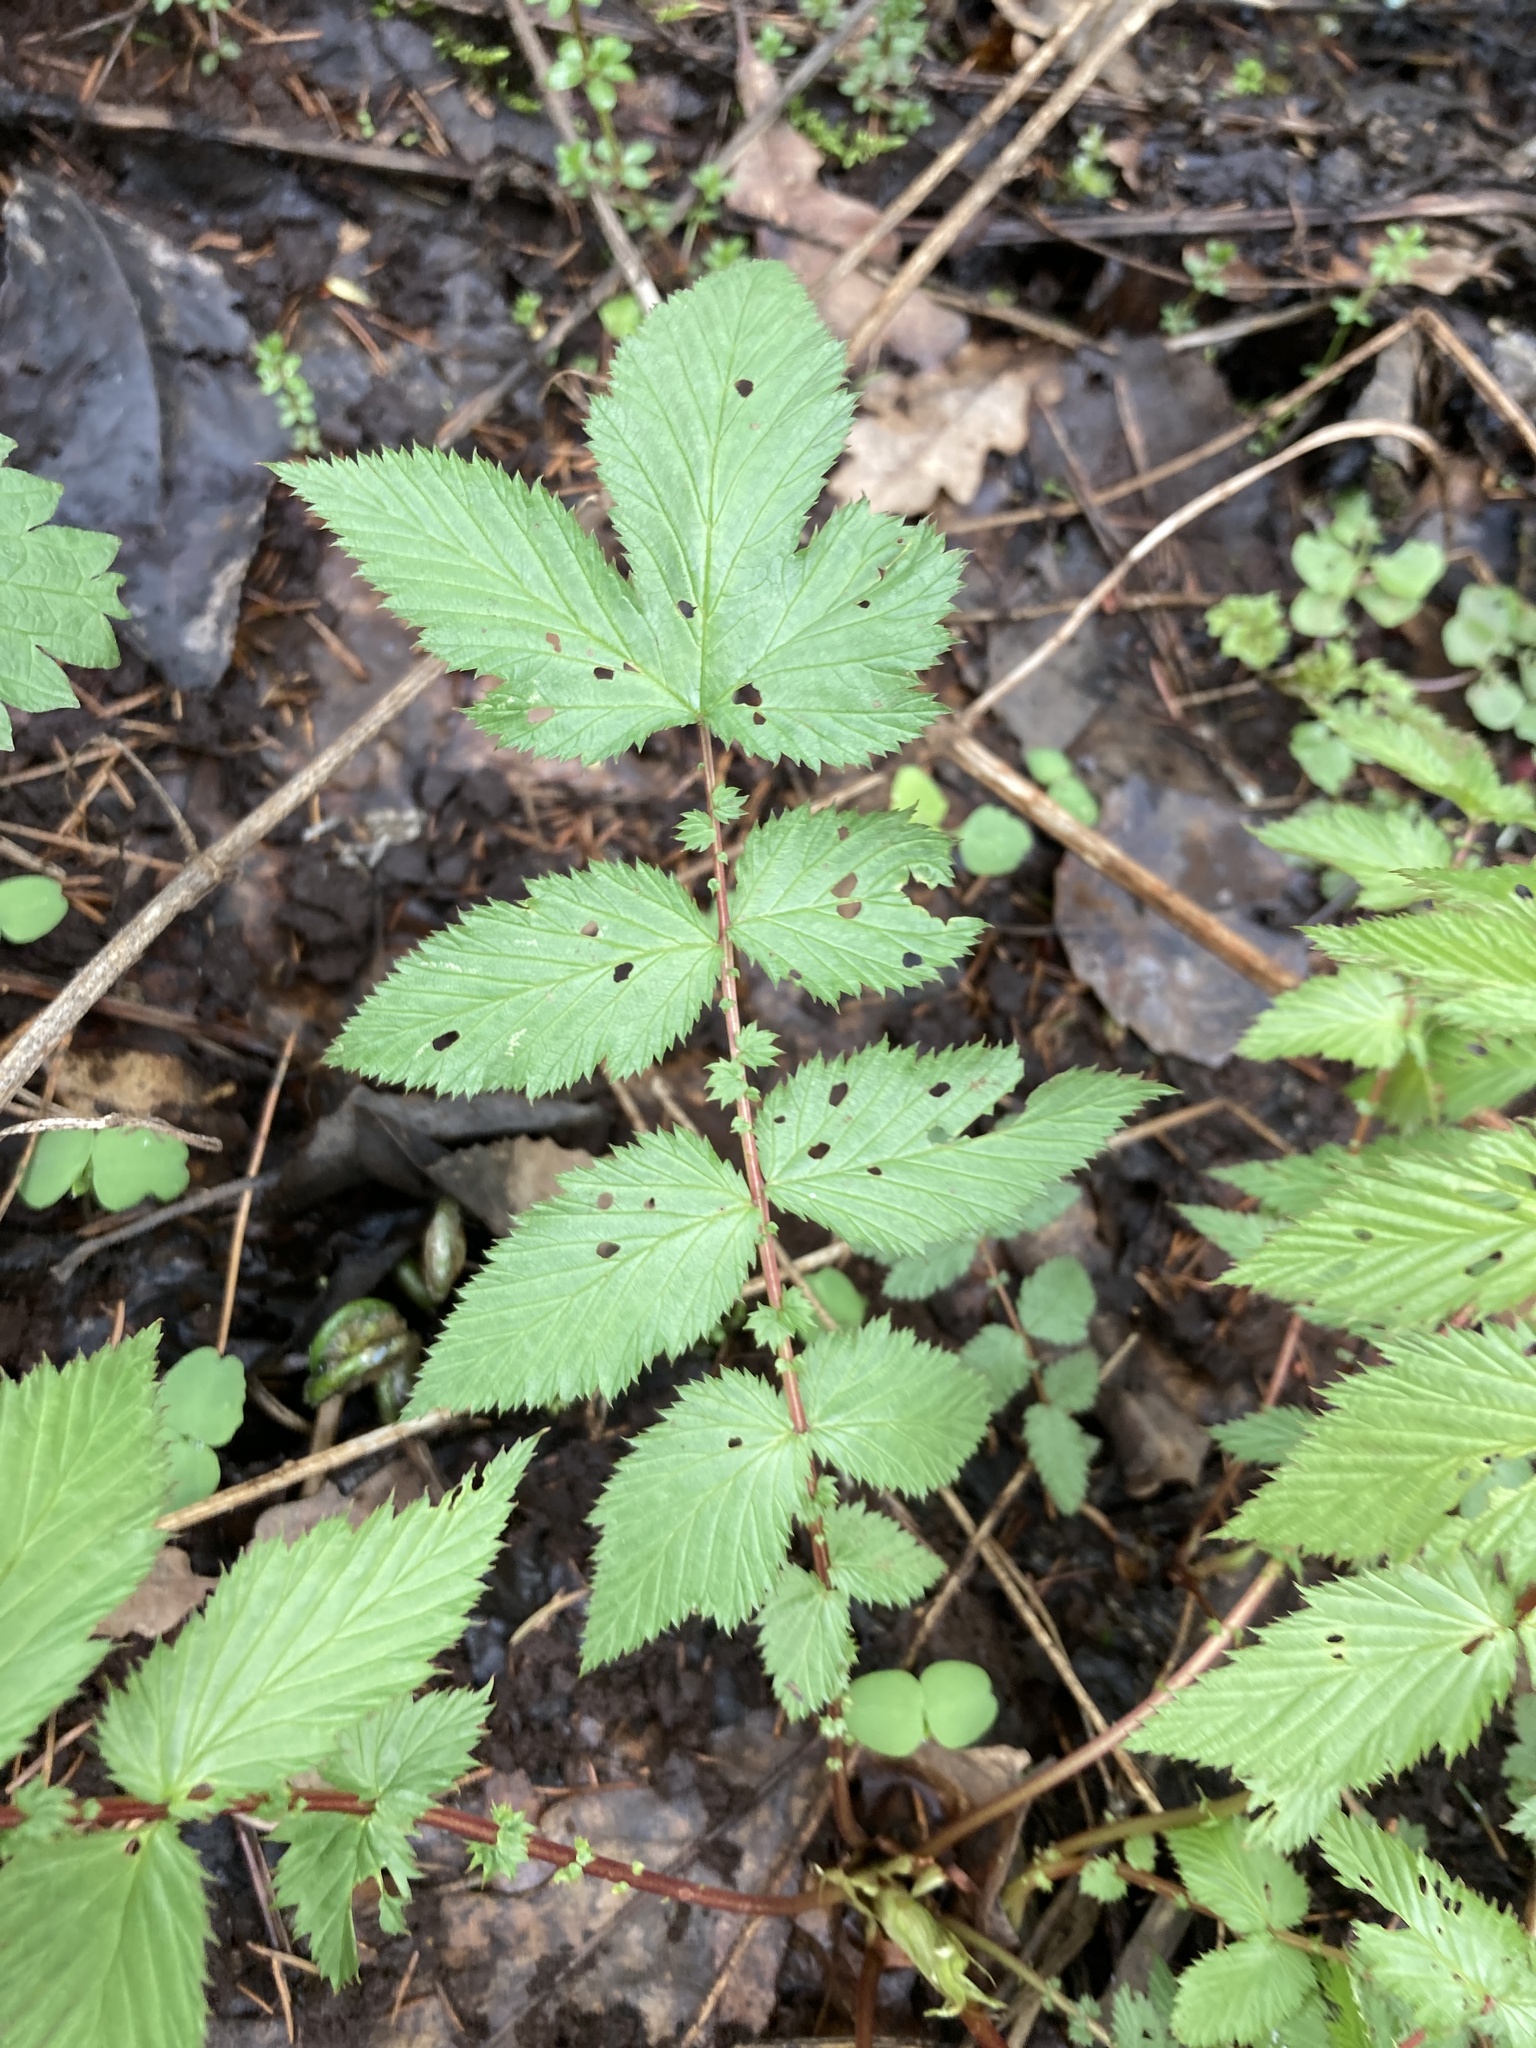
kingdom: Plantae
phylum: Tracheophyta
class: Magnoliopsida
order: Rosales
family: Rosaceae
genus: Filipendula
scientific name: Filipendula ulmaria
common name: Meadowsweet
